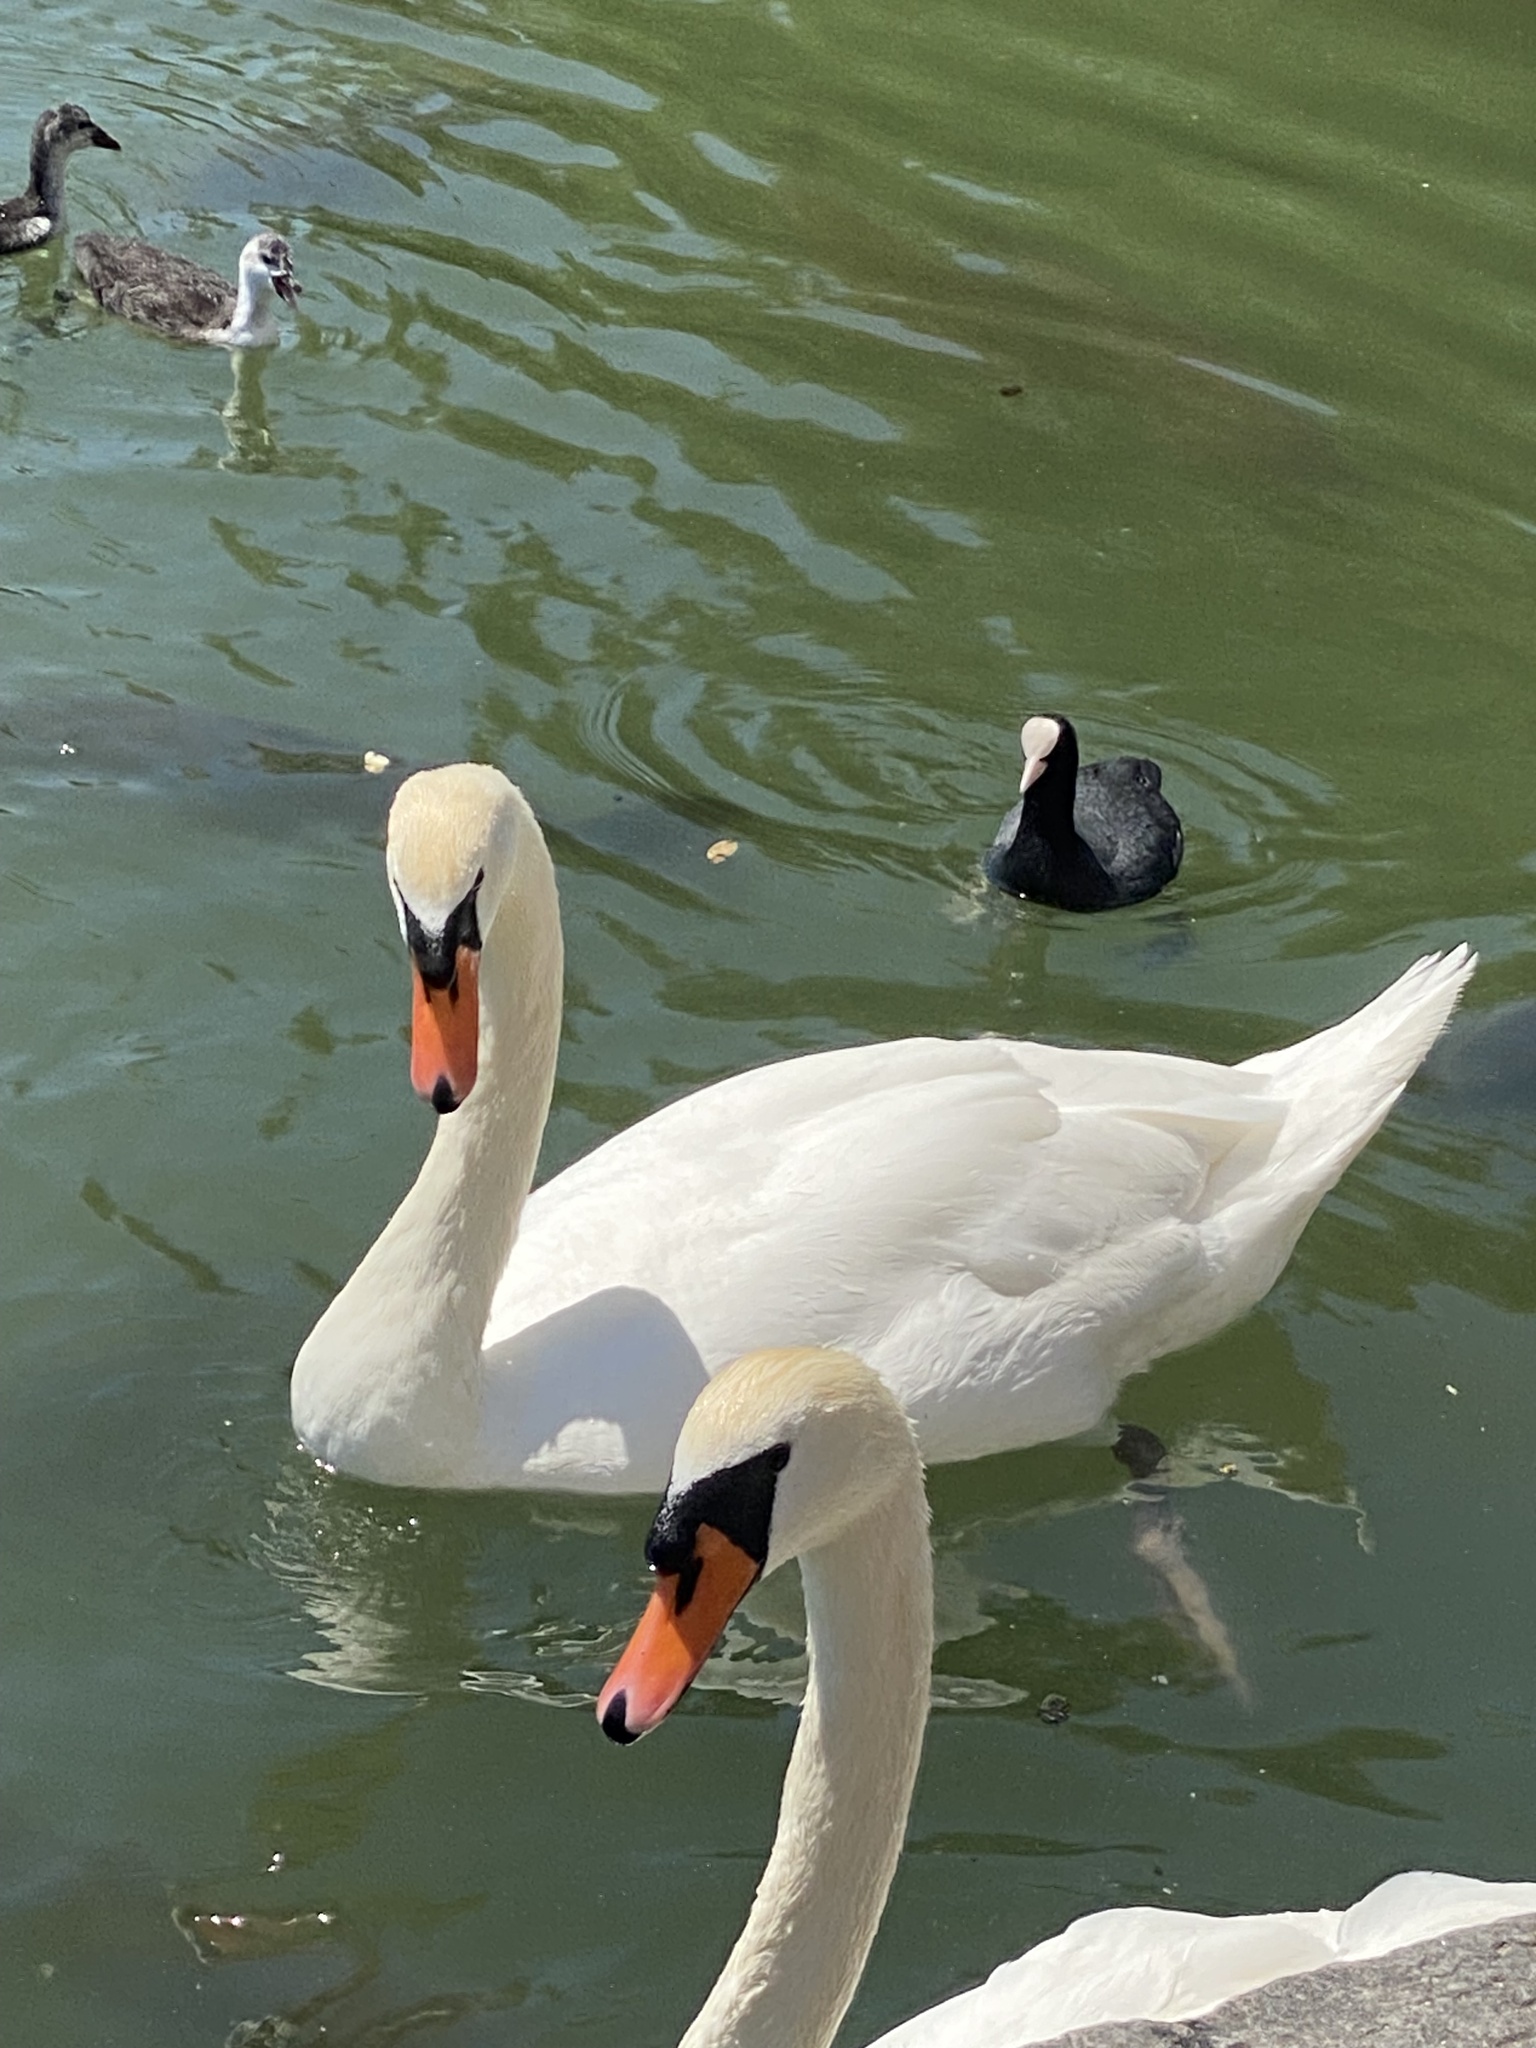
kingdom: Animalia
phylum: Chordata
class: Aves
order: Anseriformes
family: Anatidae
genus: Cygnus
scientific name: Cygnus olor
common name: Mute swan
